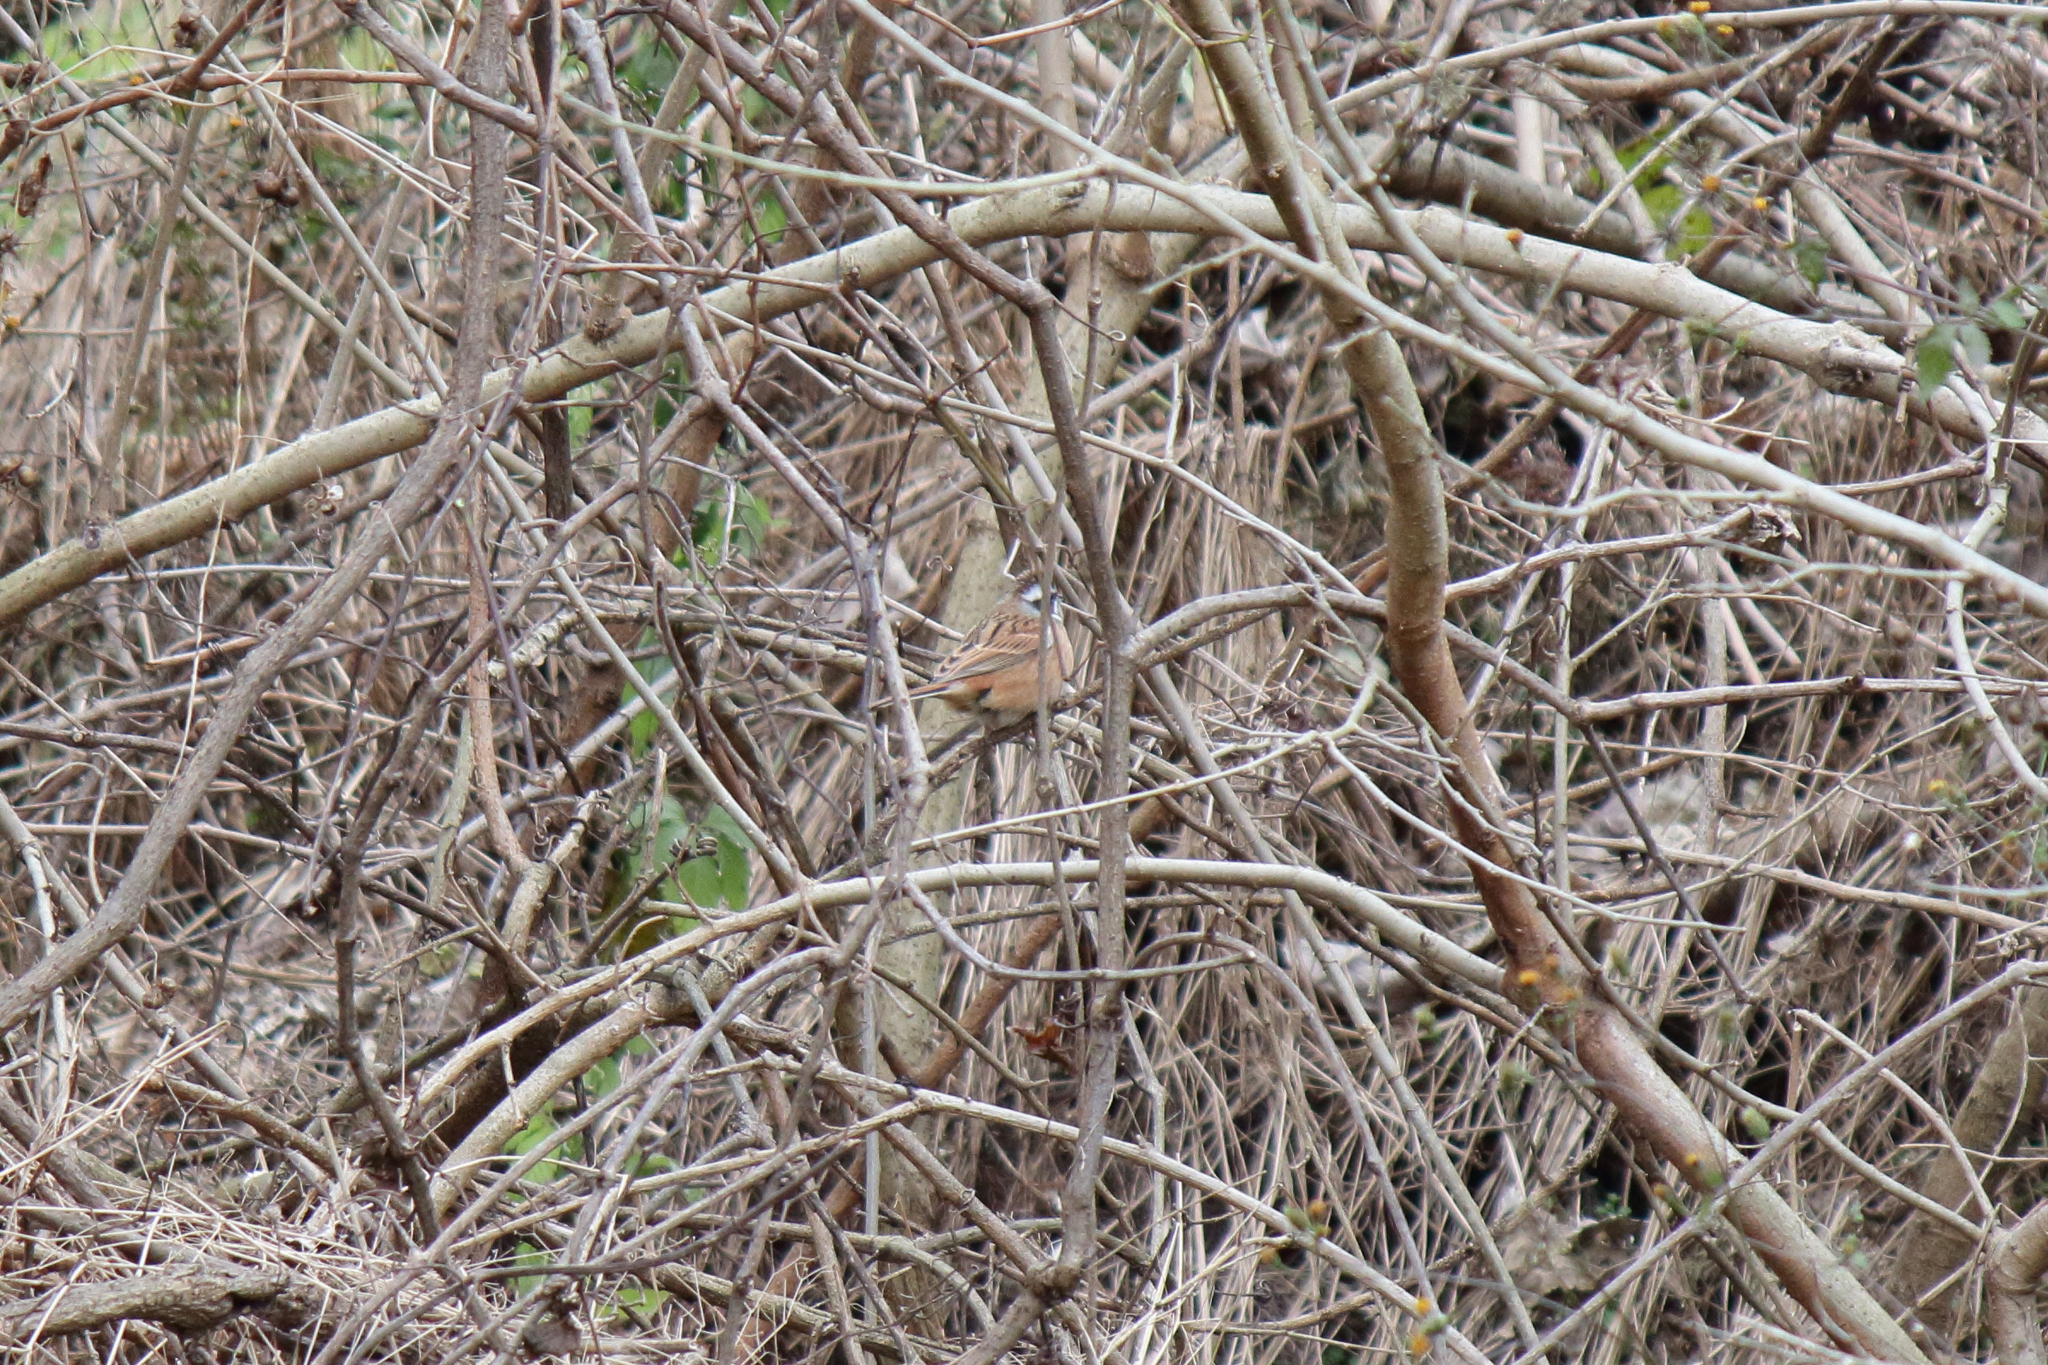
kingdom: Animalia
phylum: Chordata
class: Aves
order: Passeriformes
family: Emberizidae
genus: Emberiza
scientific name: Emberiza cioides
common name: Meadow bunting
